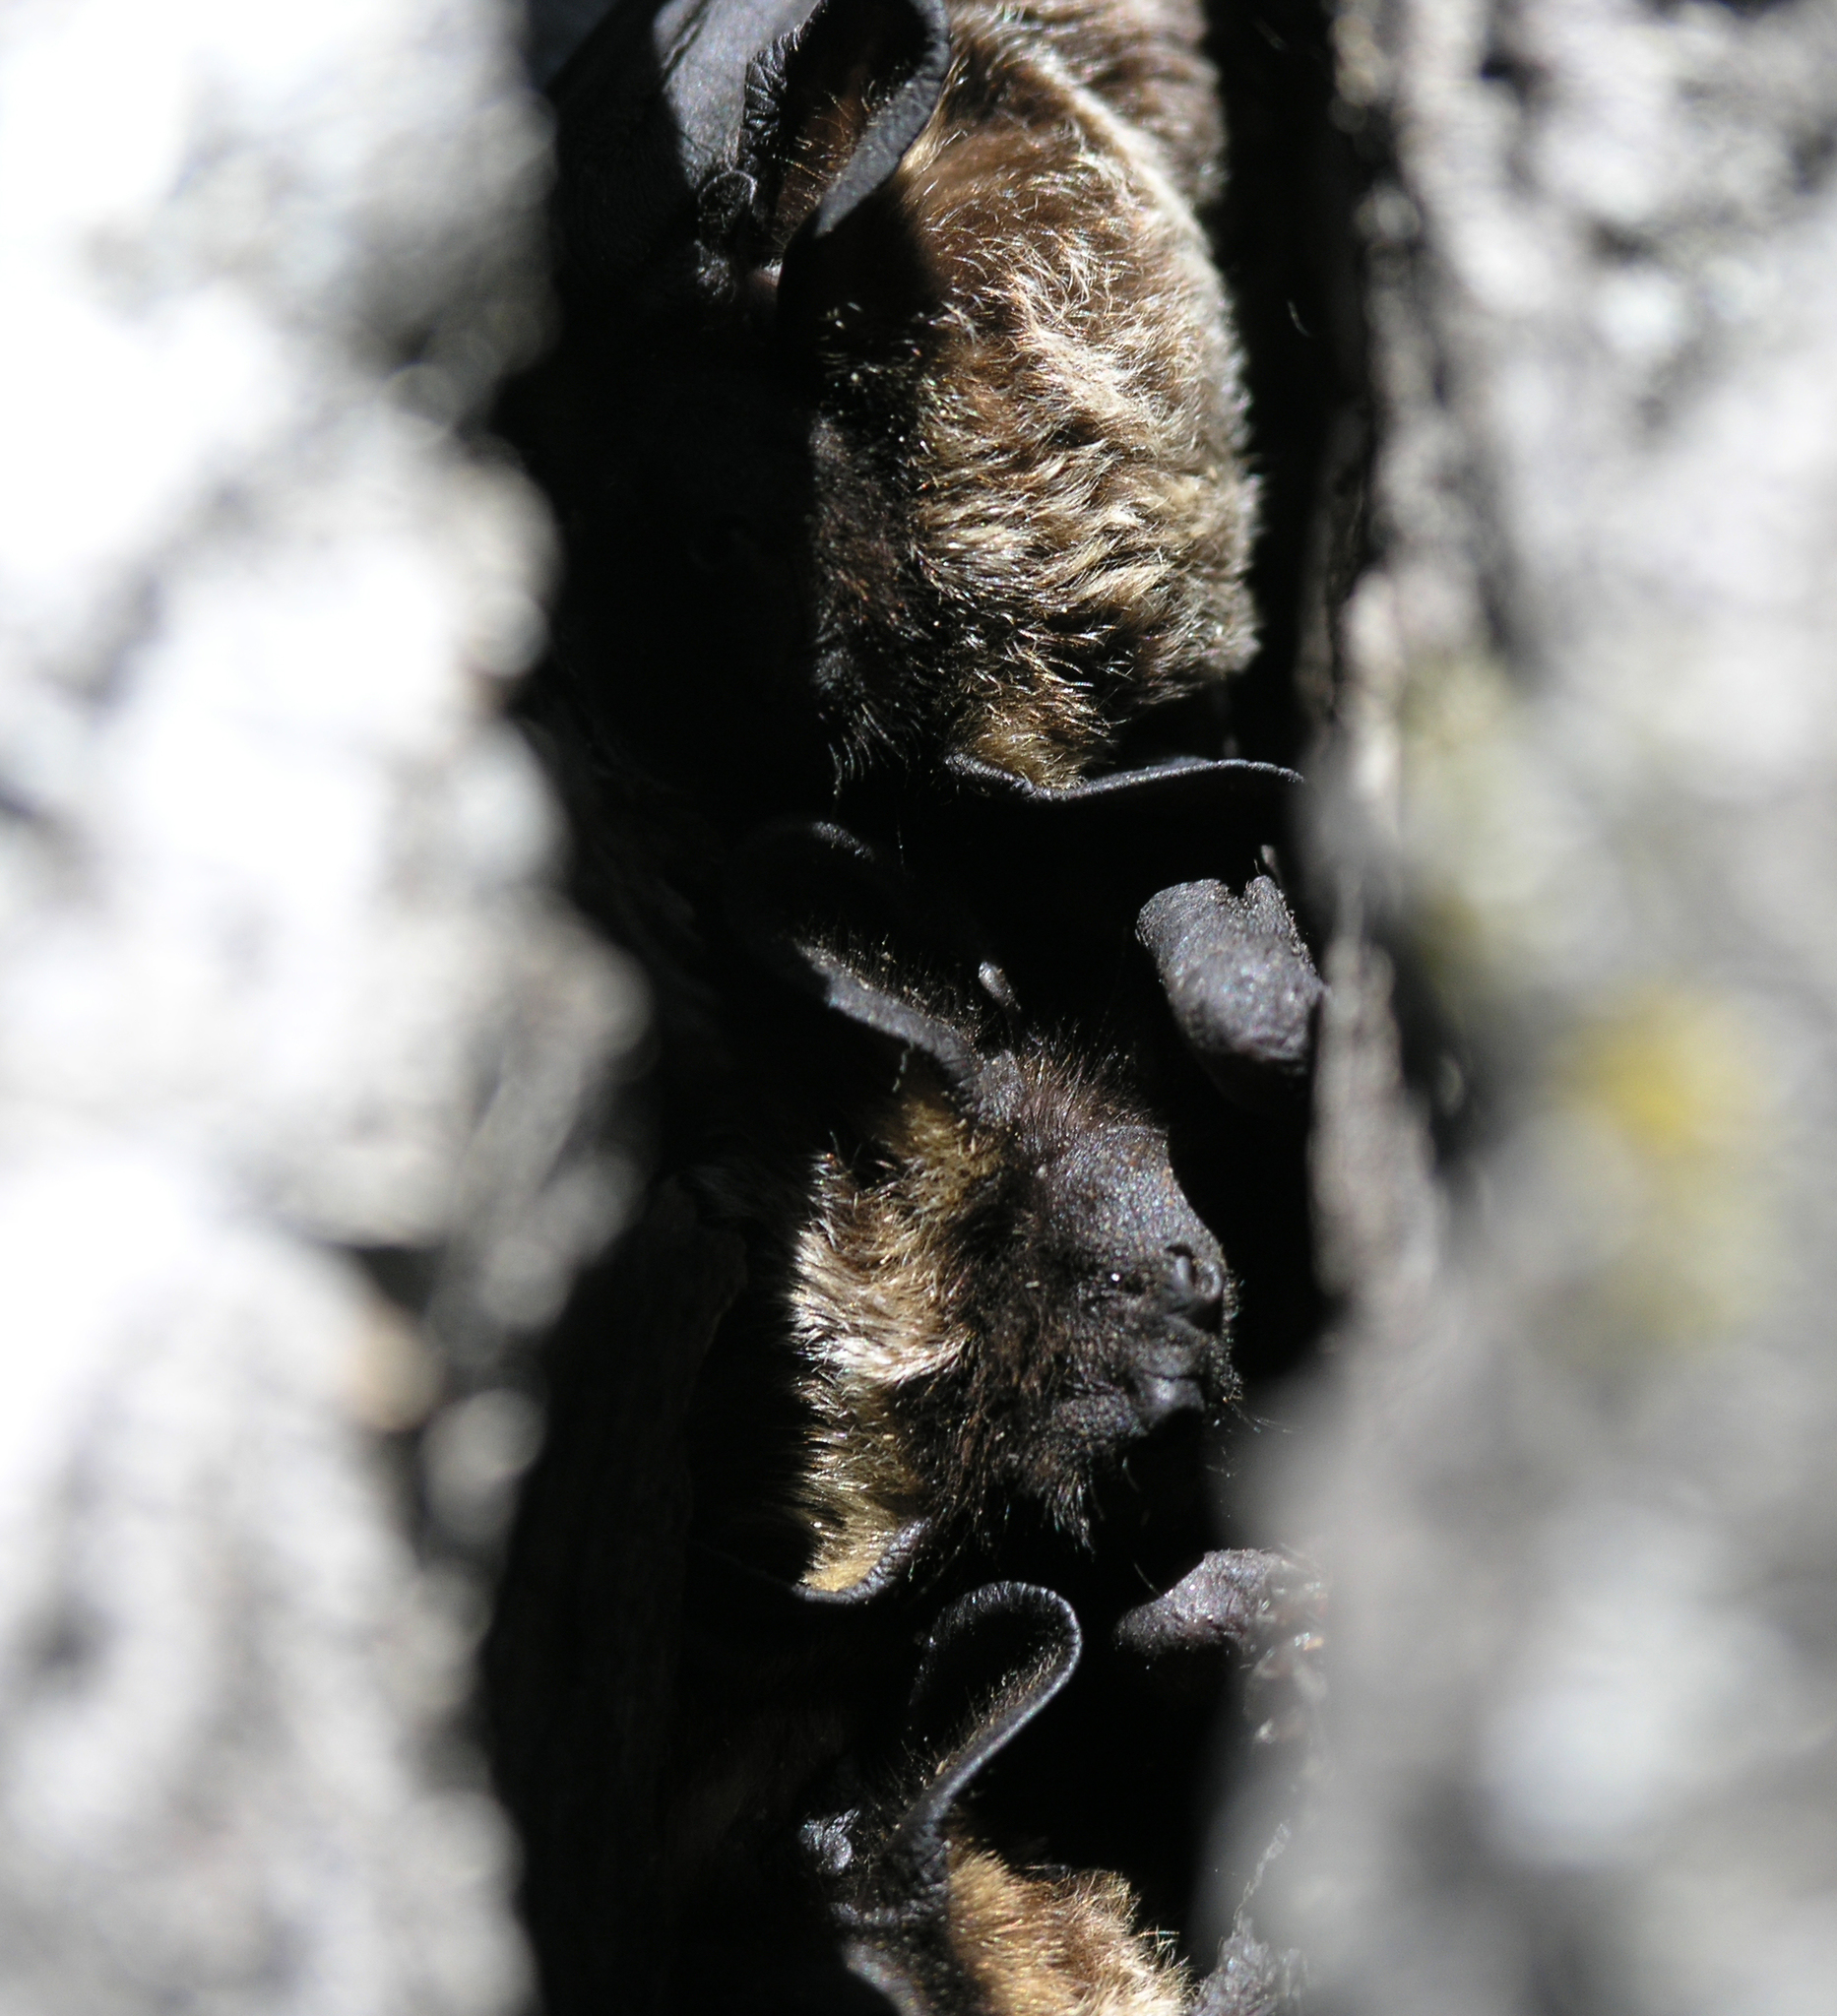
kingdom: Animalia
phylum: Chordata
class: Mammalia
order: Chiroptera
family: Vespertilionidae
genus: Vespertilio
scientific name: Vespertilio murinus
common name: Particolored bat
